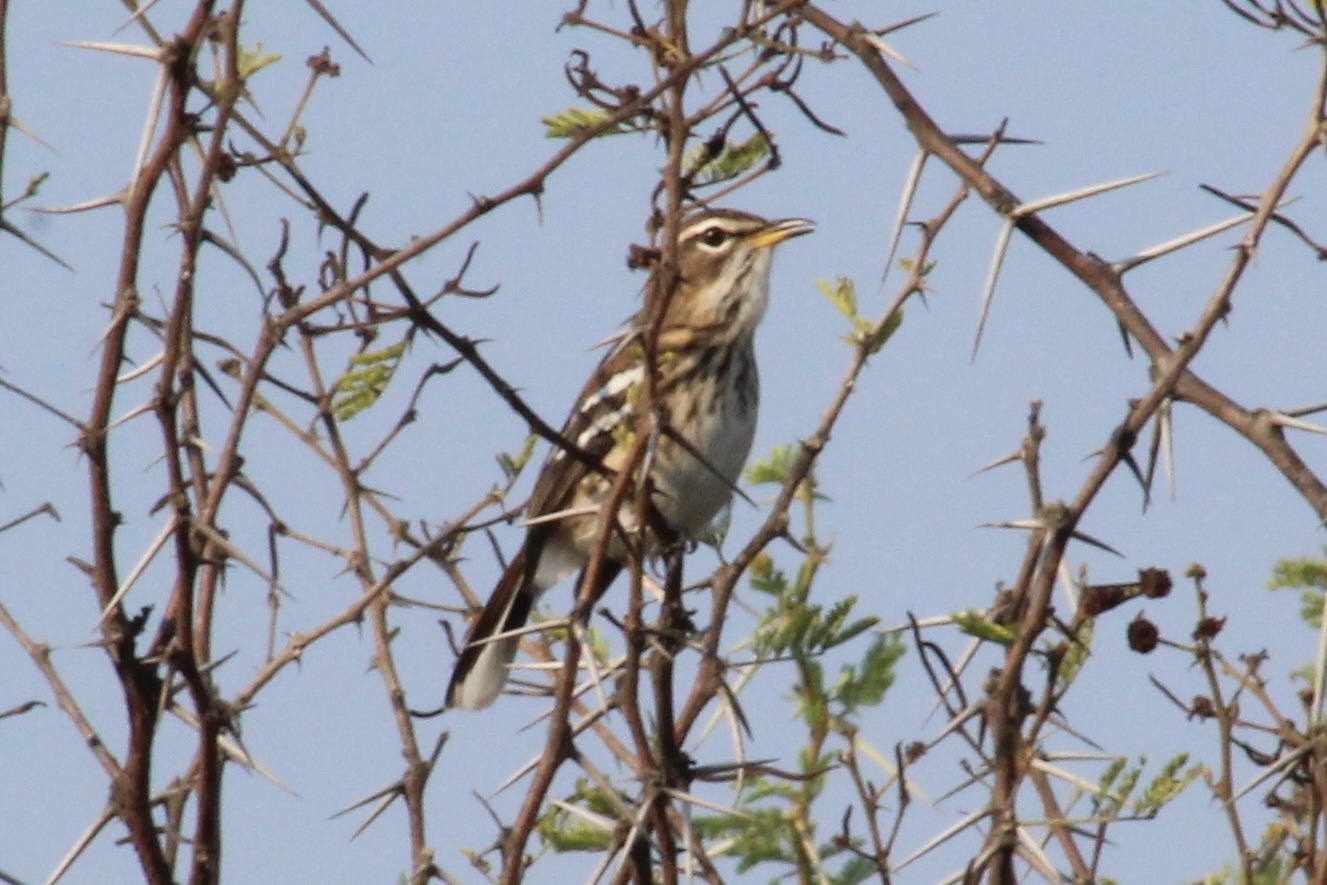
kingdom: Animalia
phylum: Chordata
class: Aves
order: Passeriformes
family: Muscicapidae
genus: Erythropygia
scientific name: Erythropygia leucophrys
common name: White-browed scrub robin
